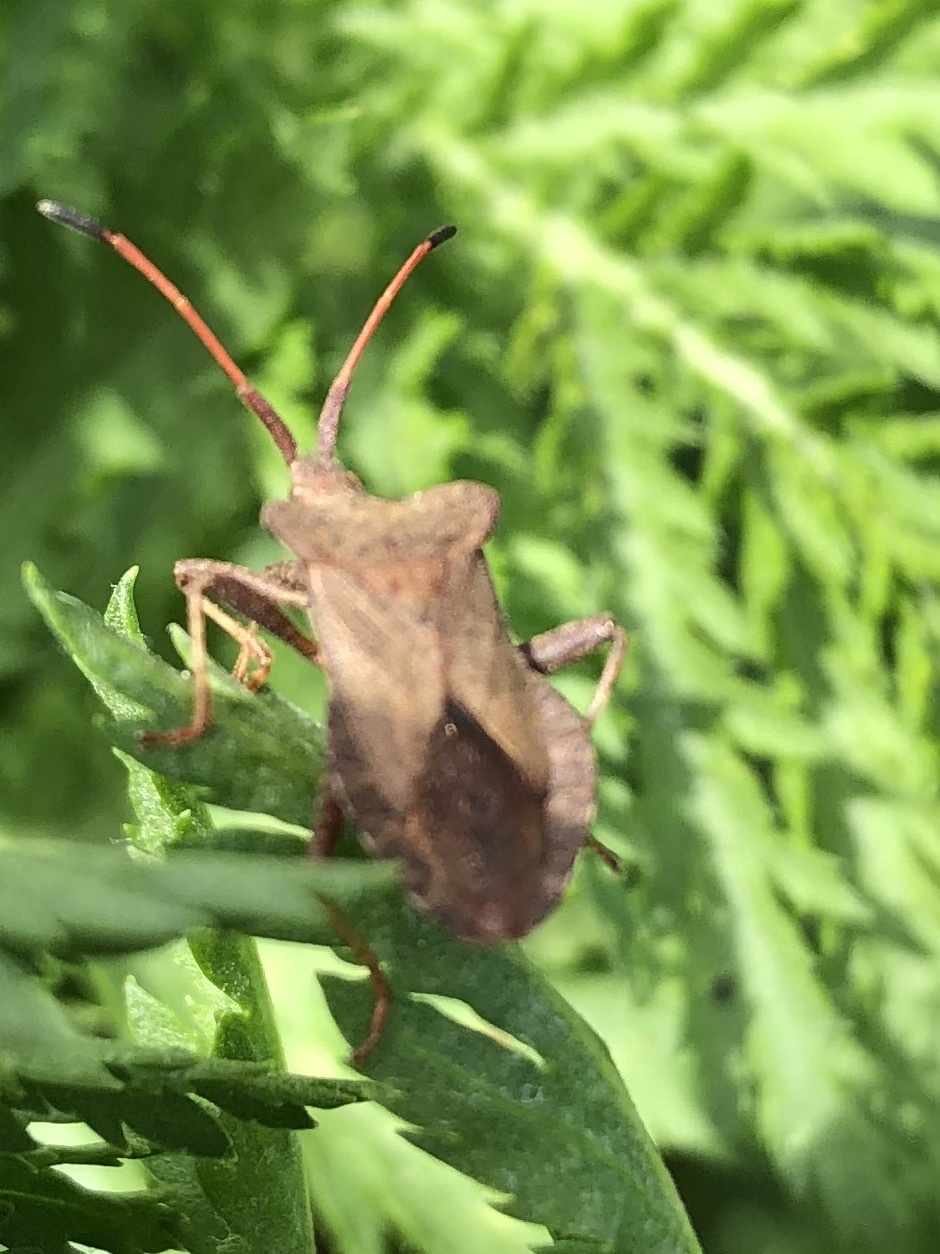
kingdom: Animalia
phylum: Arthropoda
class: Insecta
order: Hemiptera
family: Coreidae
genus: Coreus
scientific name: Coreus marginatus
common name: Dock bug
